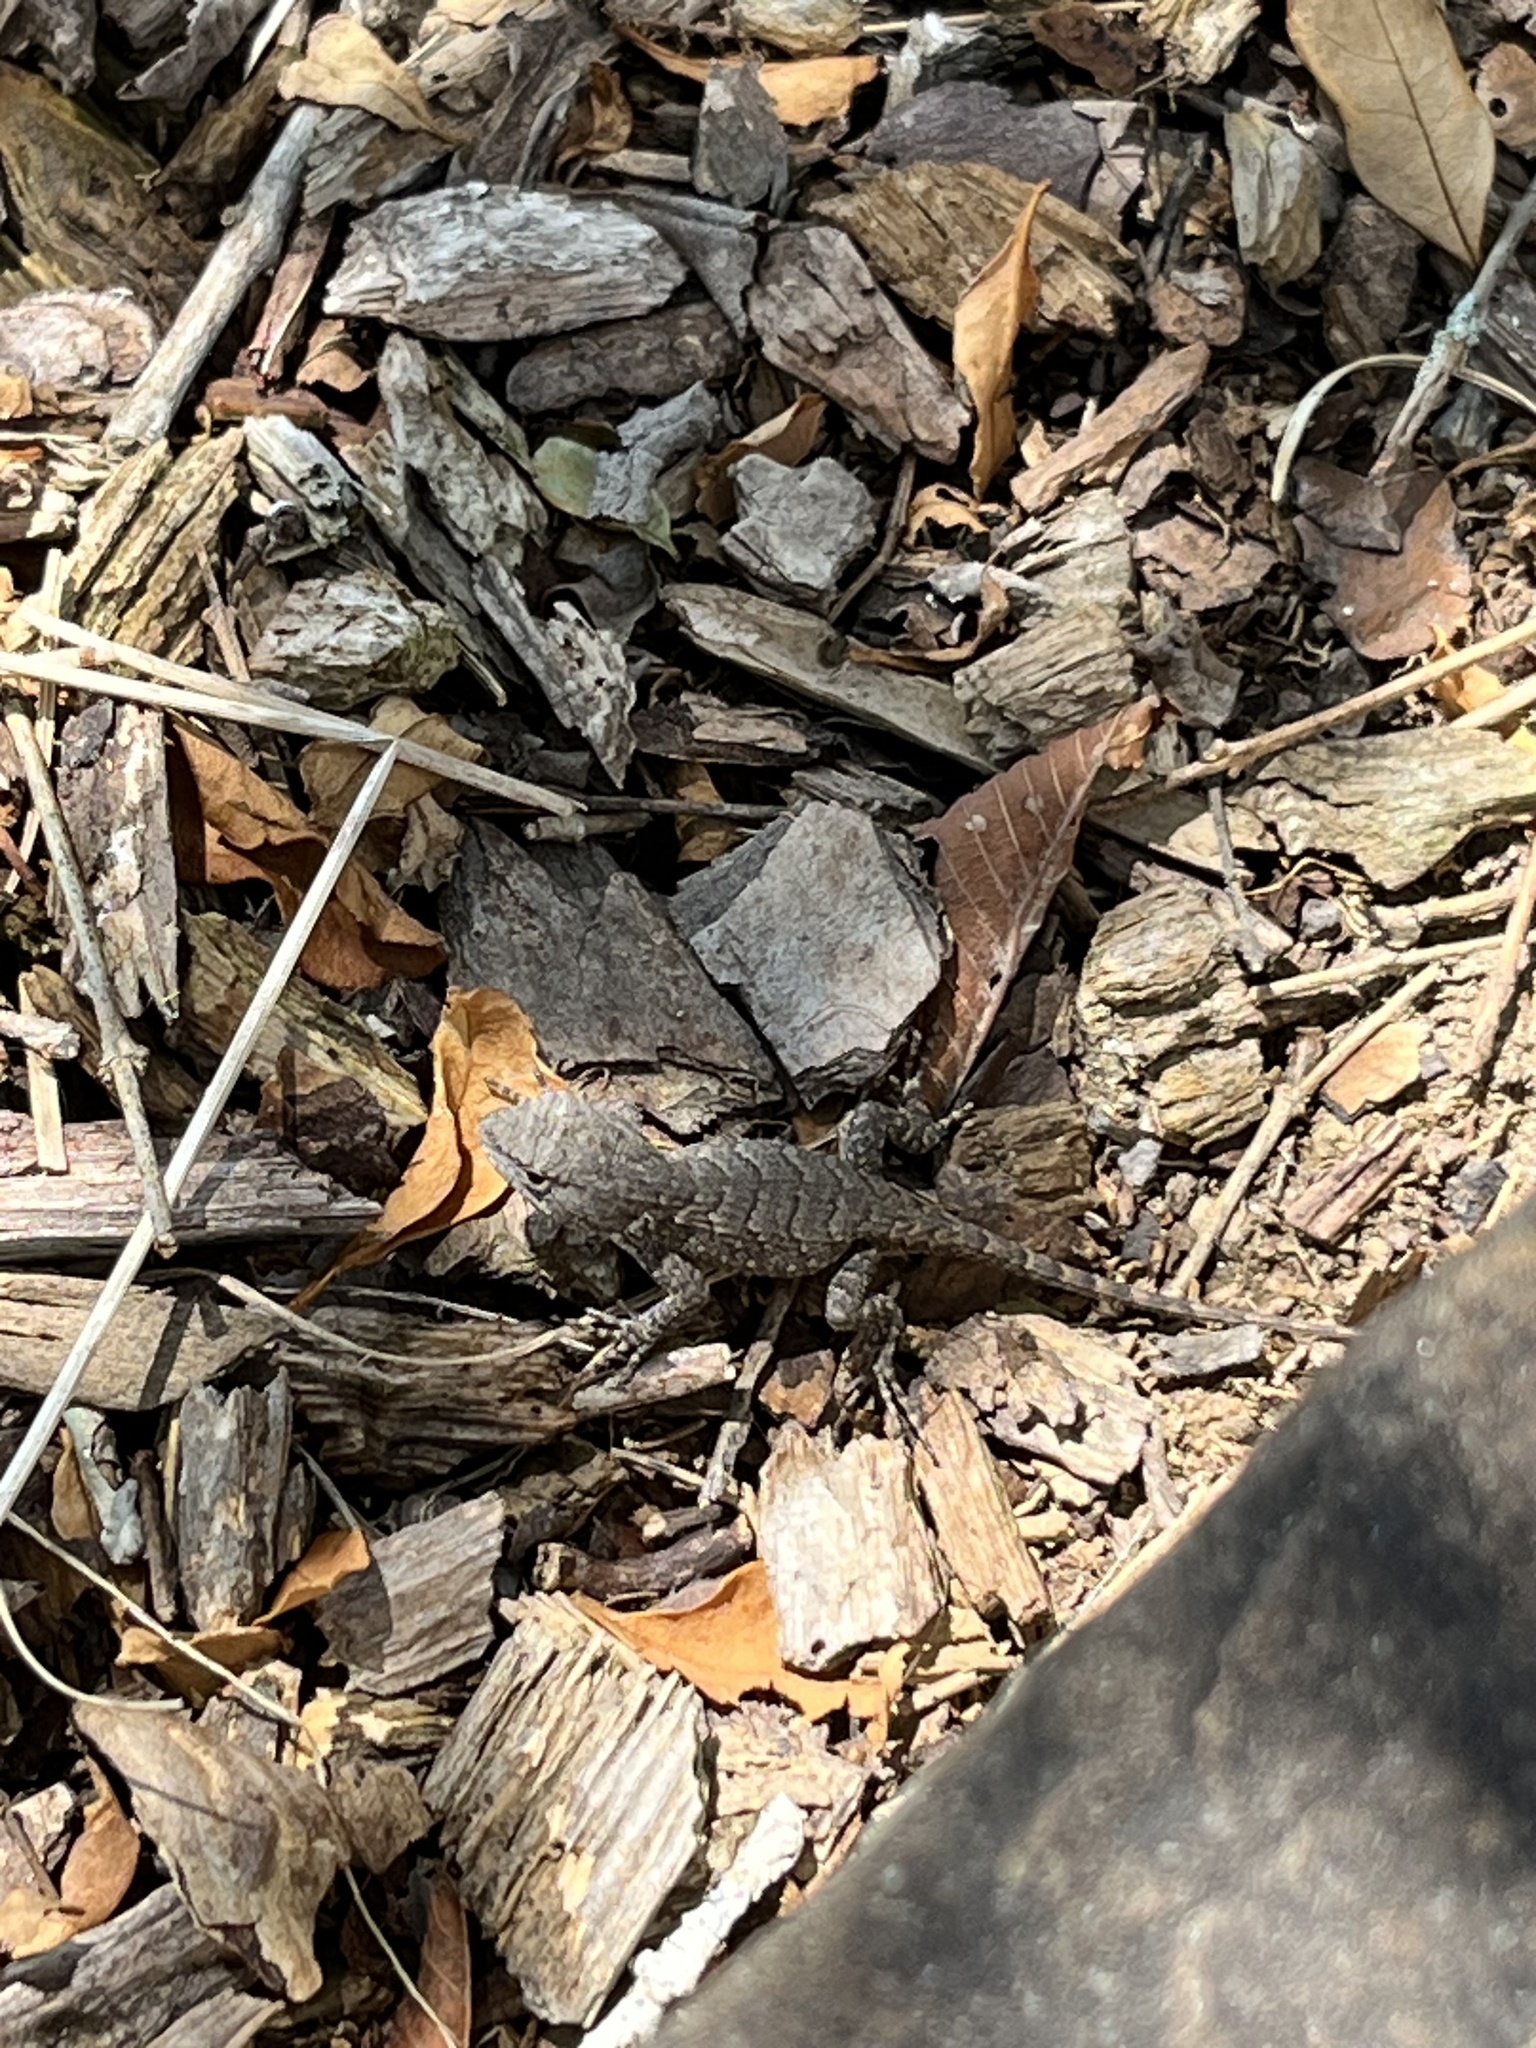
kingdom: Animalia
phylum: Chordata
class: Squamata
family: Phrynosomatidae
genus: Sceloporus
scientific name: Sceloporus consobrinus
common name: Southern prairie lizard
